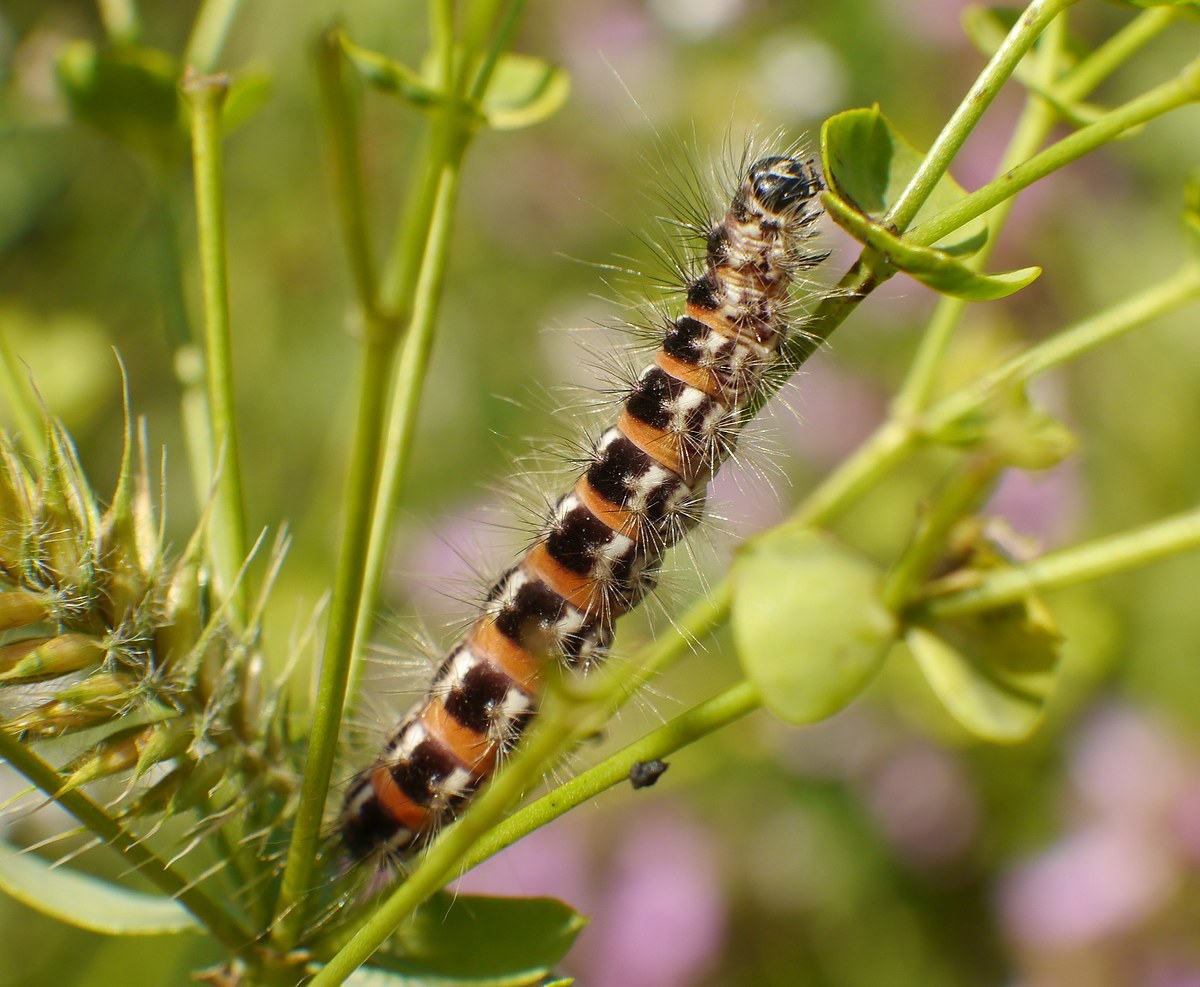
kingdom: Animalia
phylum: Arthropoda
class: Insecta
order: Lepidoptera
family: Noctuidae
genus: Oxicesta
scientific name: Oxicesta geographica
